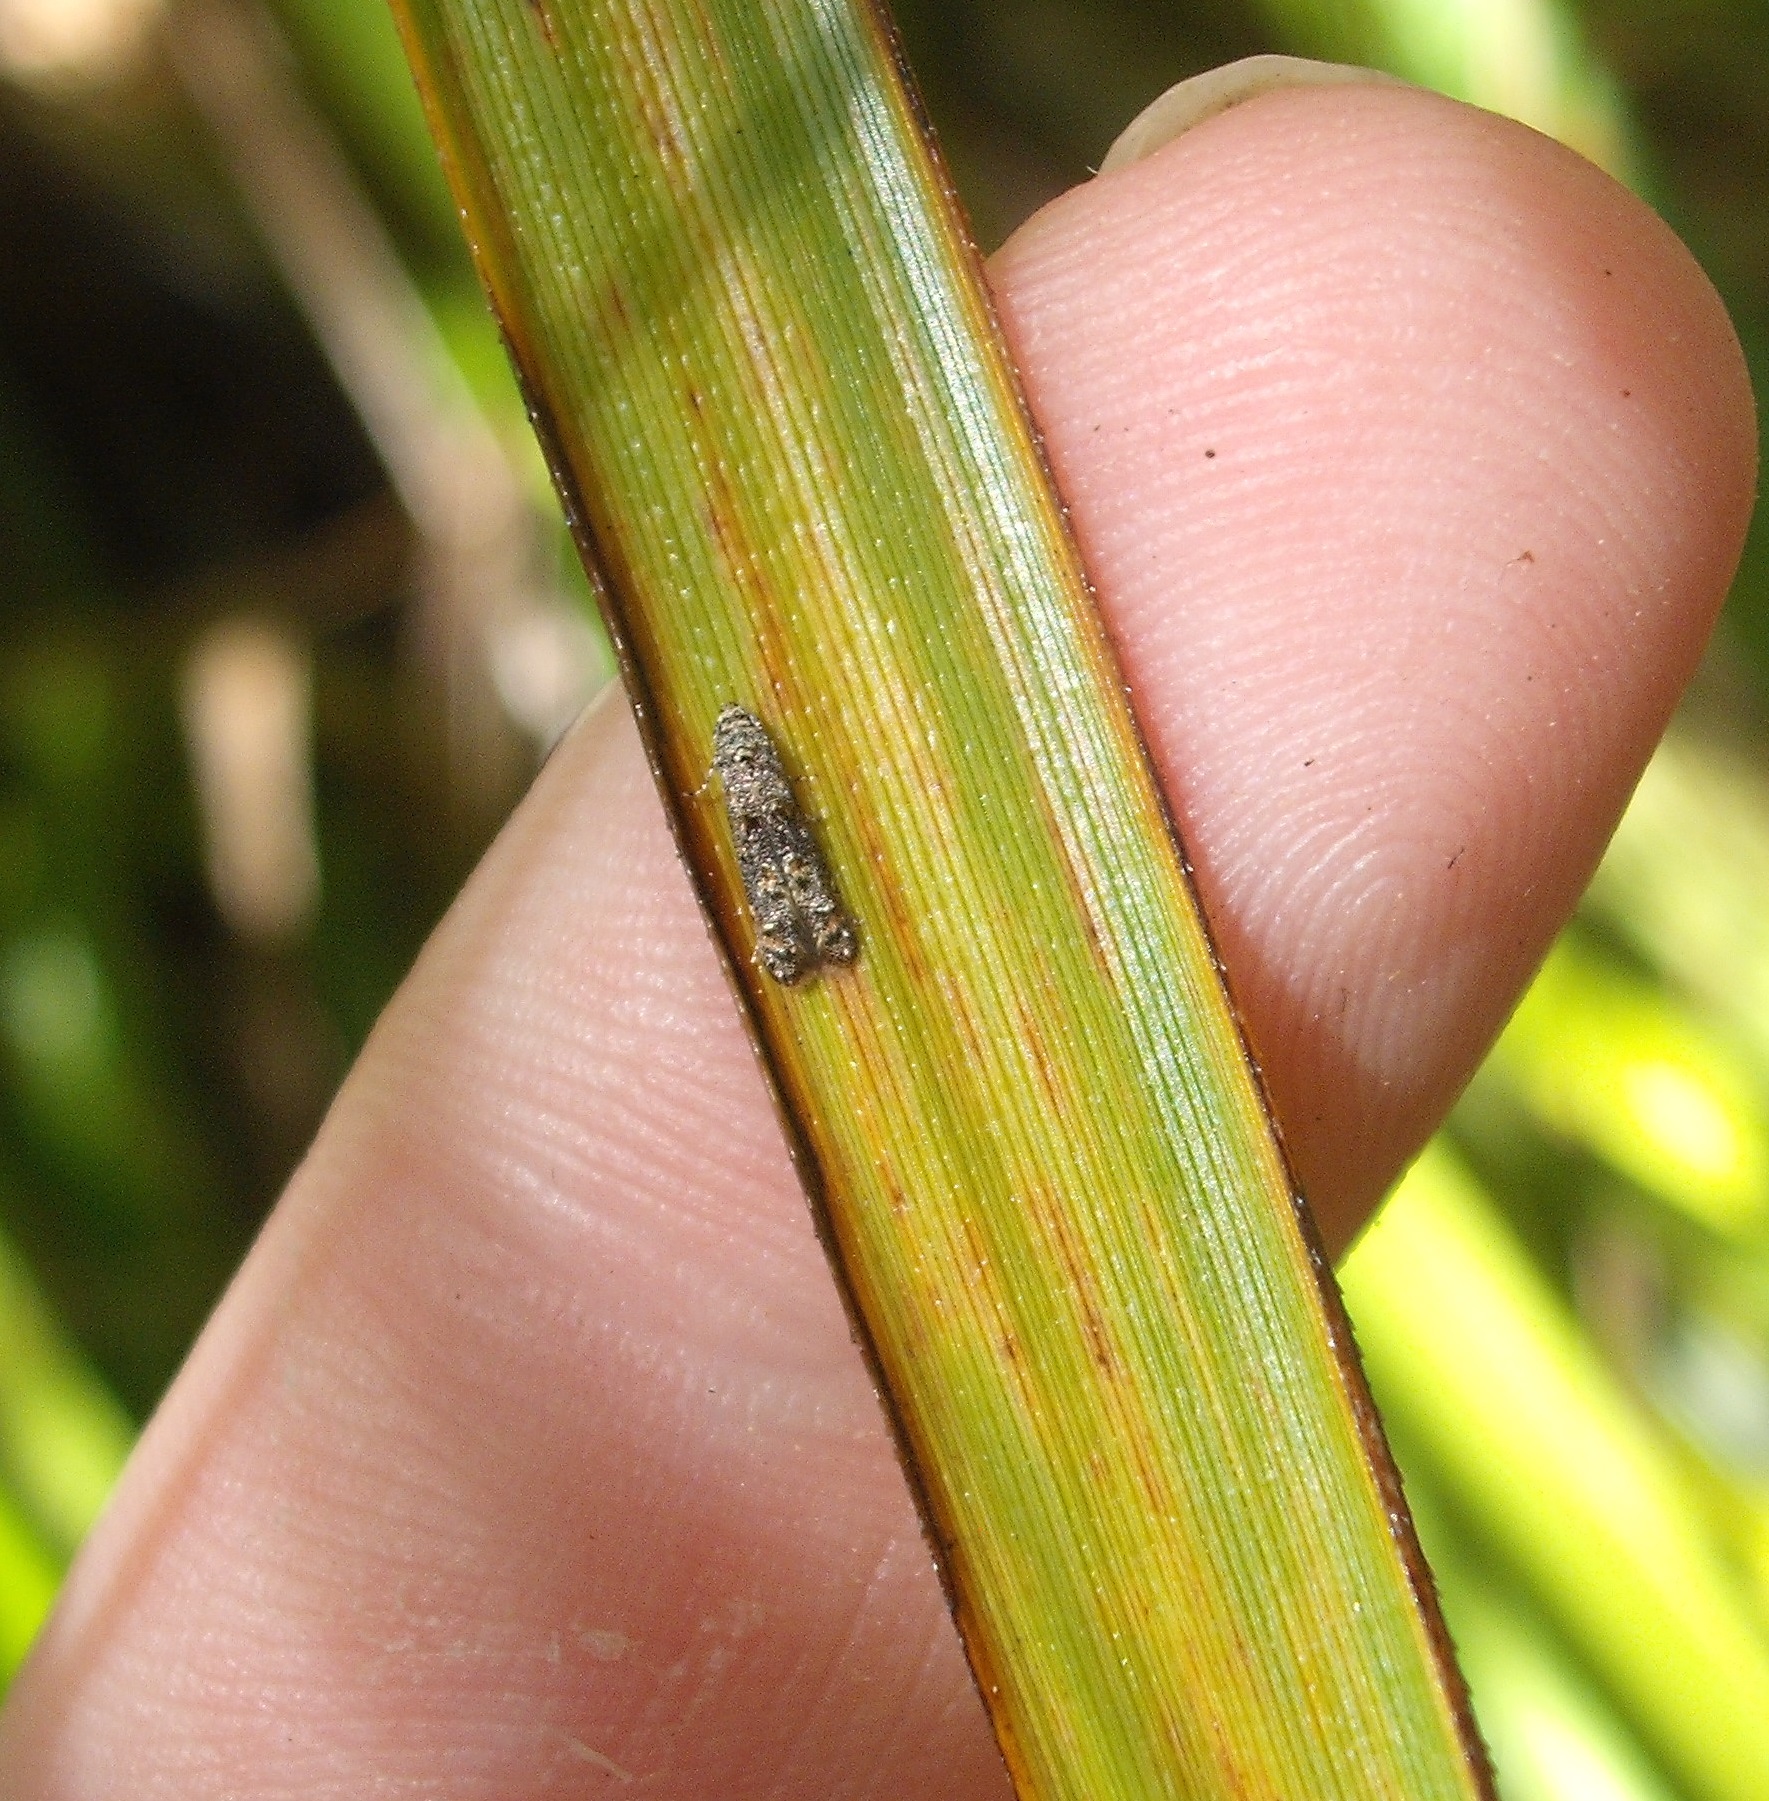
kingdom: Animalia
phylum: Arthropoda
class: Insecta
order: Lepidoptera
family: Elachistidae
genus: Microcolona
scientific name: Microcolona
